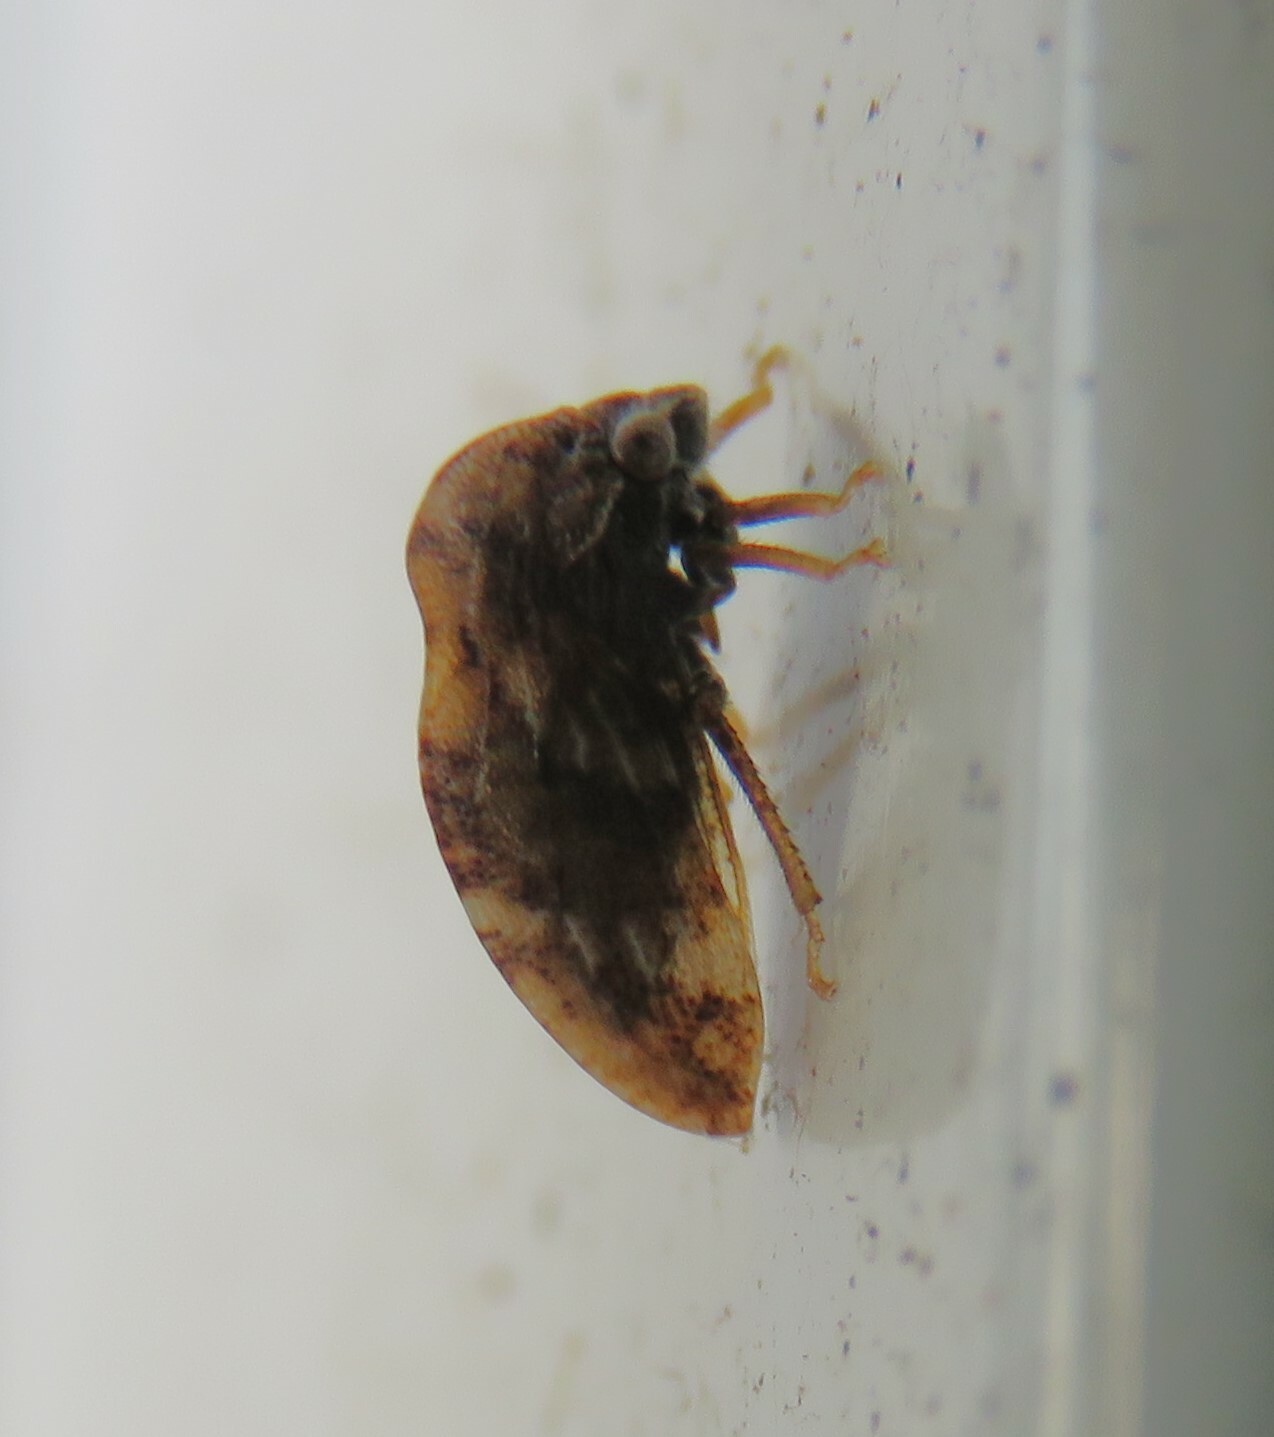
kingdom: Animalia
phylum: Arthropoda
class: Insecta
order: Hemiptera
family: Membracidae
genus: Publilia
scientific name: Publilia concava
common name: Aster treehopper
